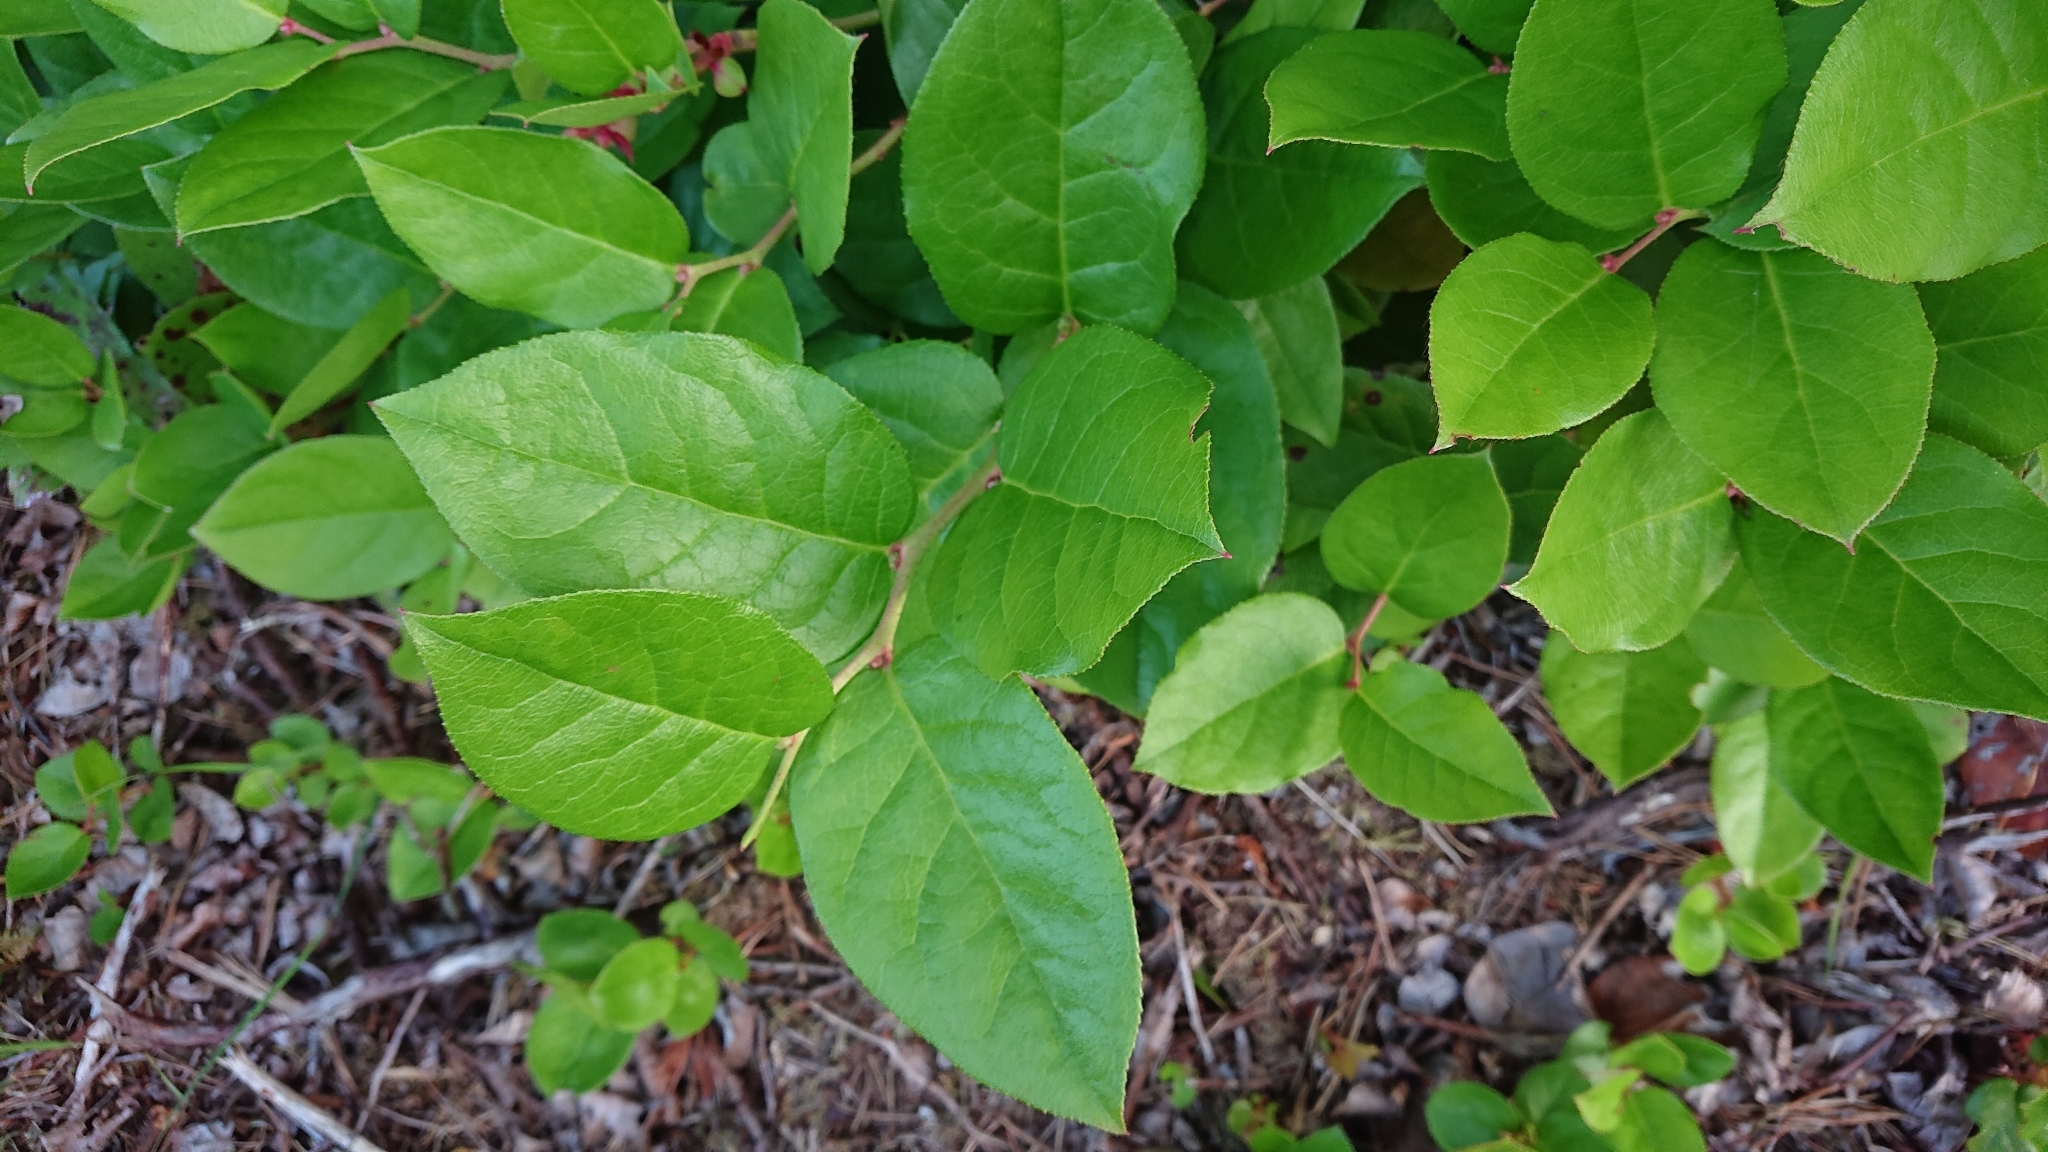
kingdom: Plantae
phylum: Tracheophyta
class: Magnoliopsida
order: Ericales
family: Ericaceae
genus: Gaultheria
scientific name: Gaultheria shallon
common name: Shallon
